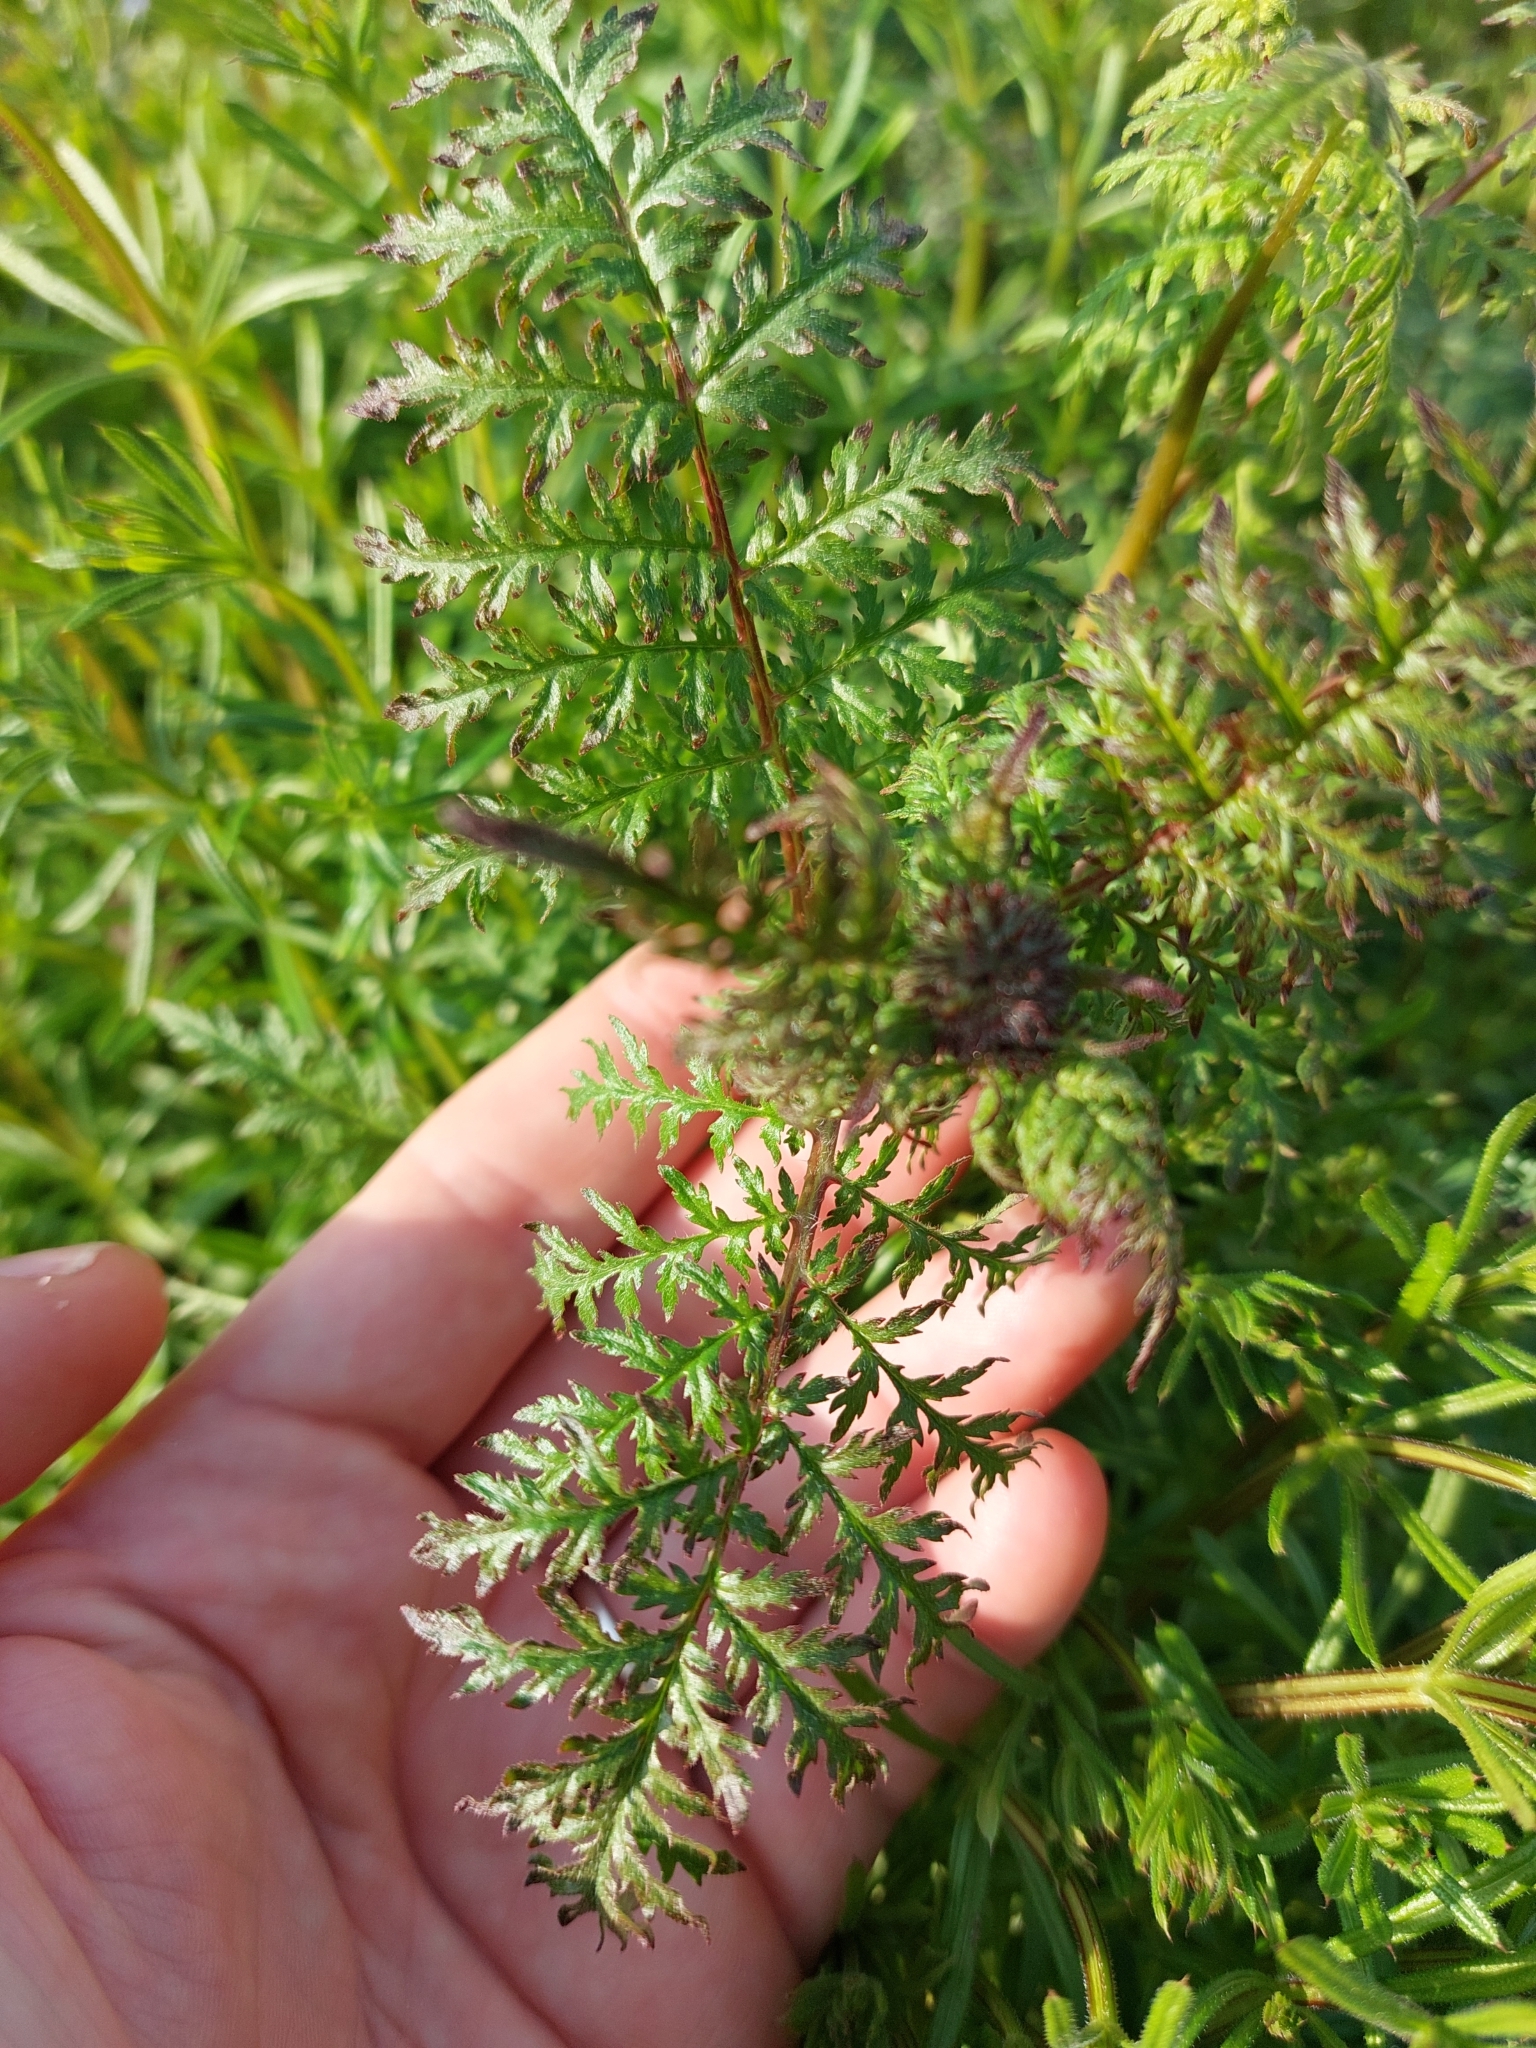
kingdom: Plantae
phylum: Tracheophyta
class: Magnoliopsida
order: Boraginales
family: Hydrophyllaceae
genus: Phacelia
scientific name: Phacelia tanacetifolia
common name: Phacelia
